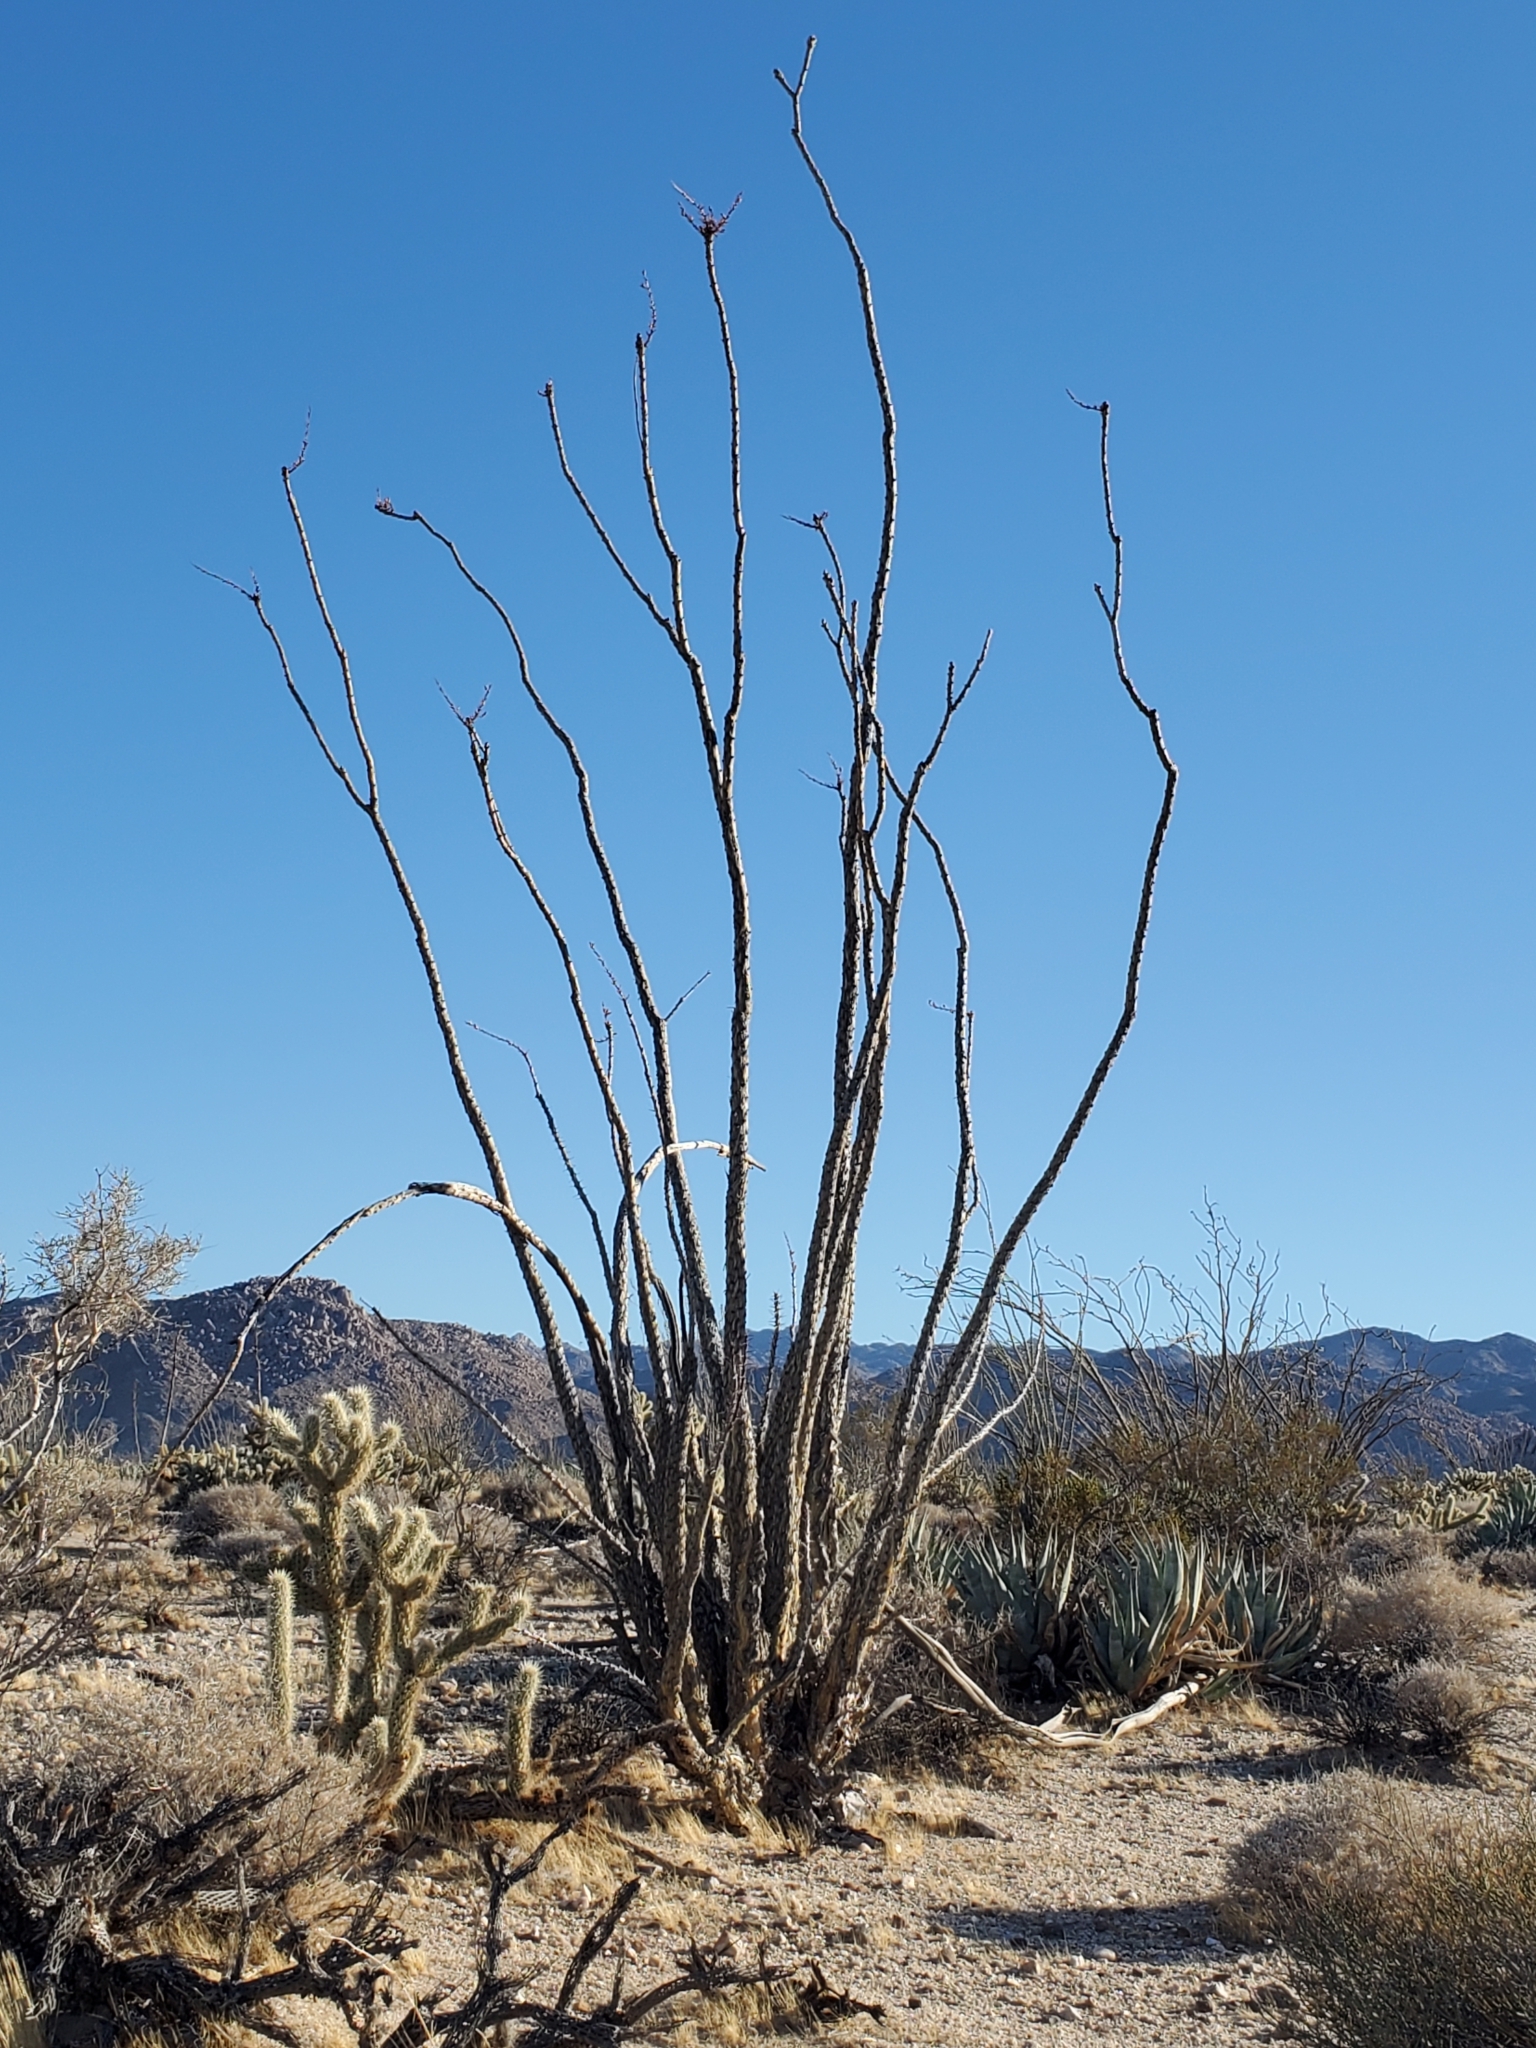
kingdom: Plantae
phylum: Tracheophyta
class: Magnoliopsida
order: Ericales
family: Fouquieriaceae
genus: Fouquieria
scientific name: Fouquieria splendens
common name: Vine-cactus
